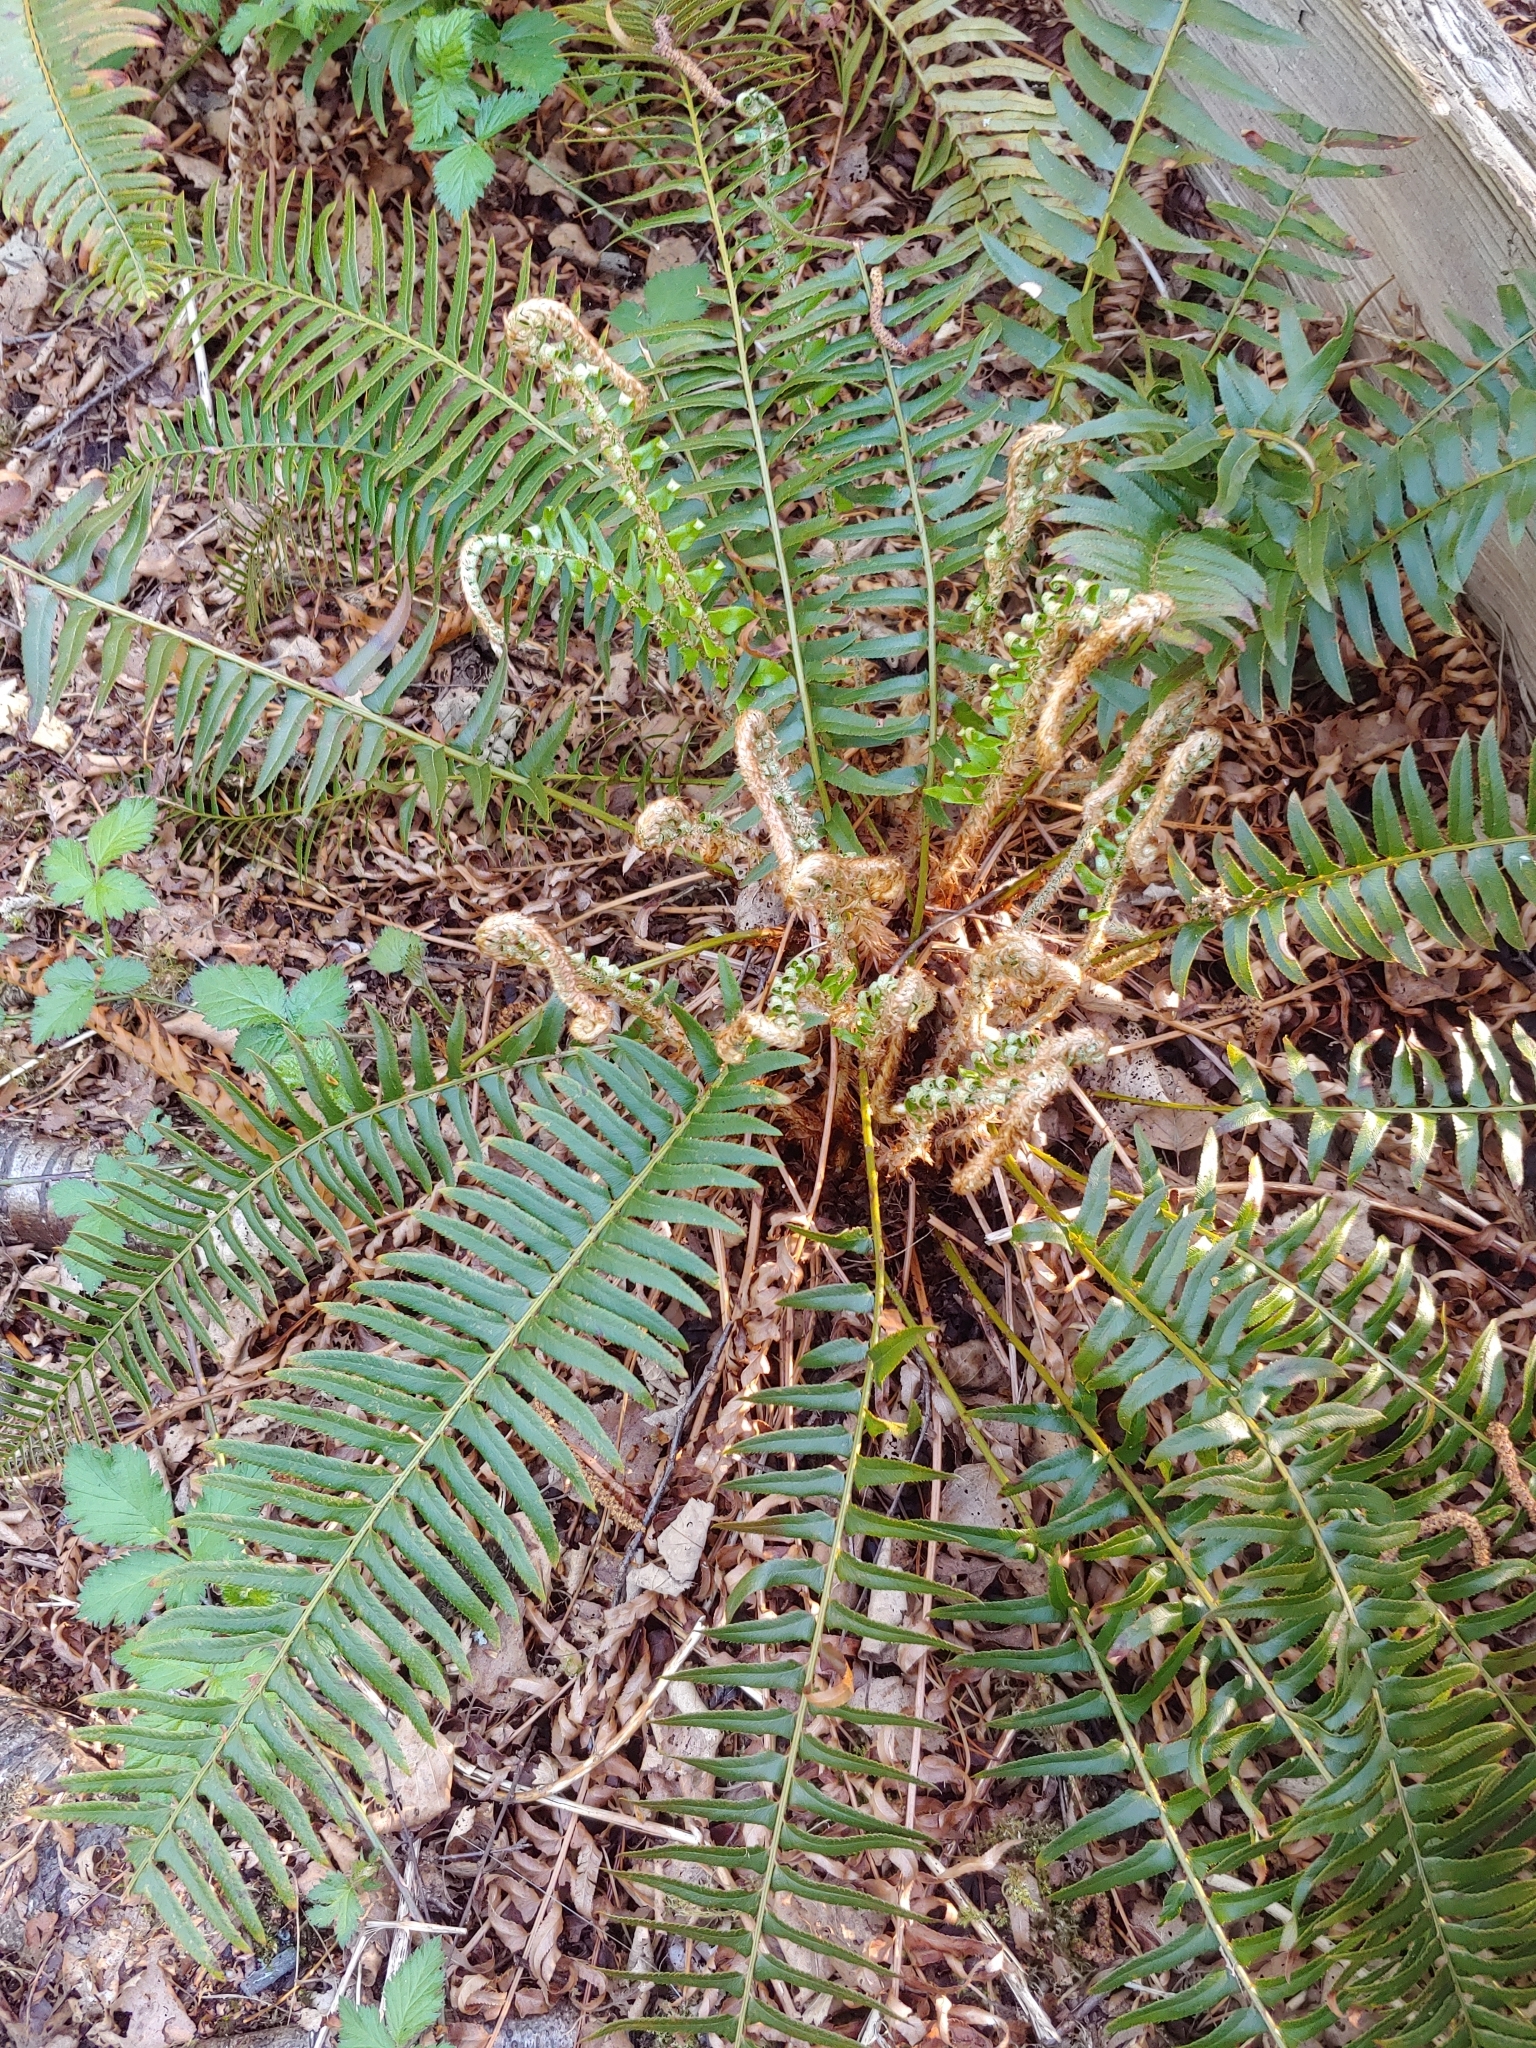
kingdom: Plantae
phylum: Tracheophyta
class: Polypodiopsida
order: Polypodiales
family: Dryopteridaceae
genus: Polystichum
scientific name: Polystichum munitum
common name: Western sword-fern
